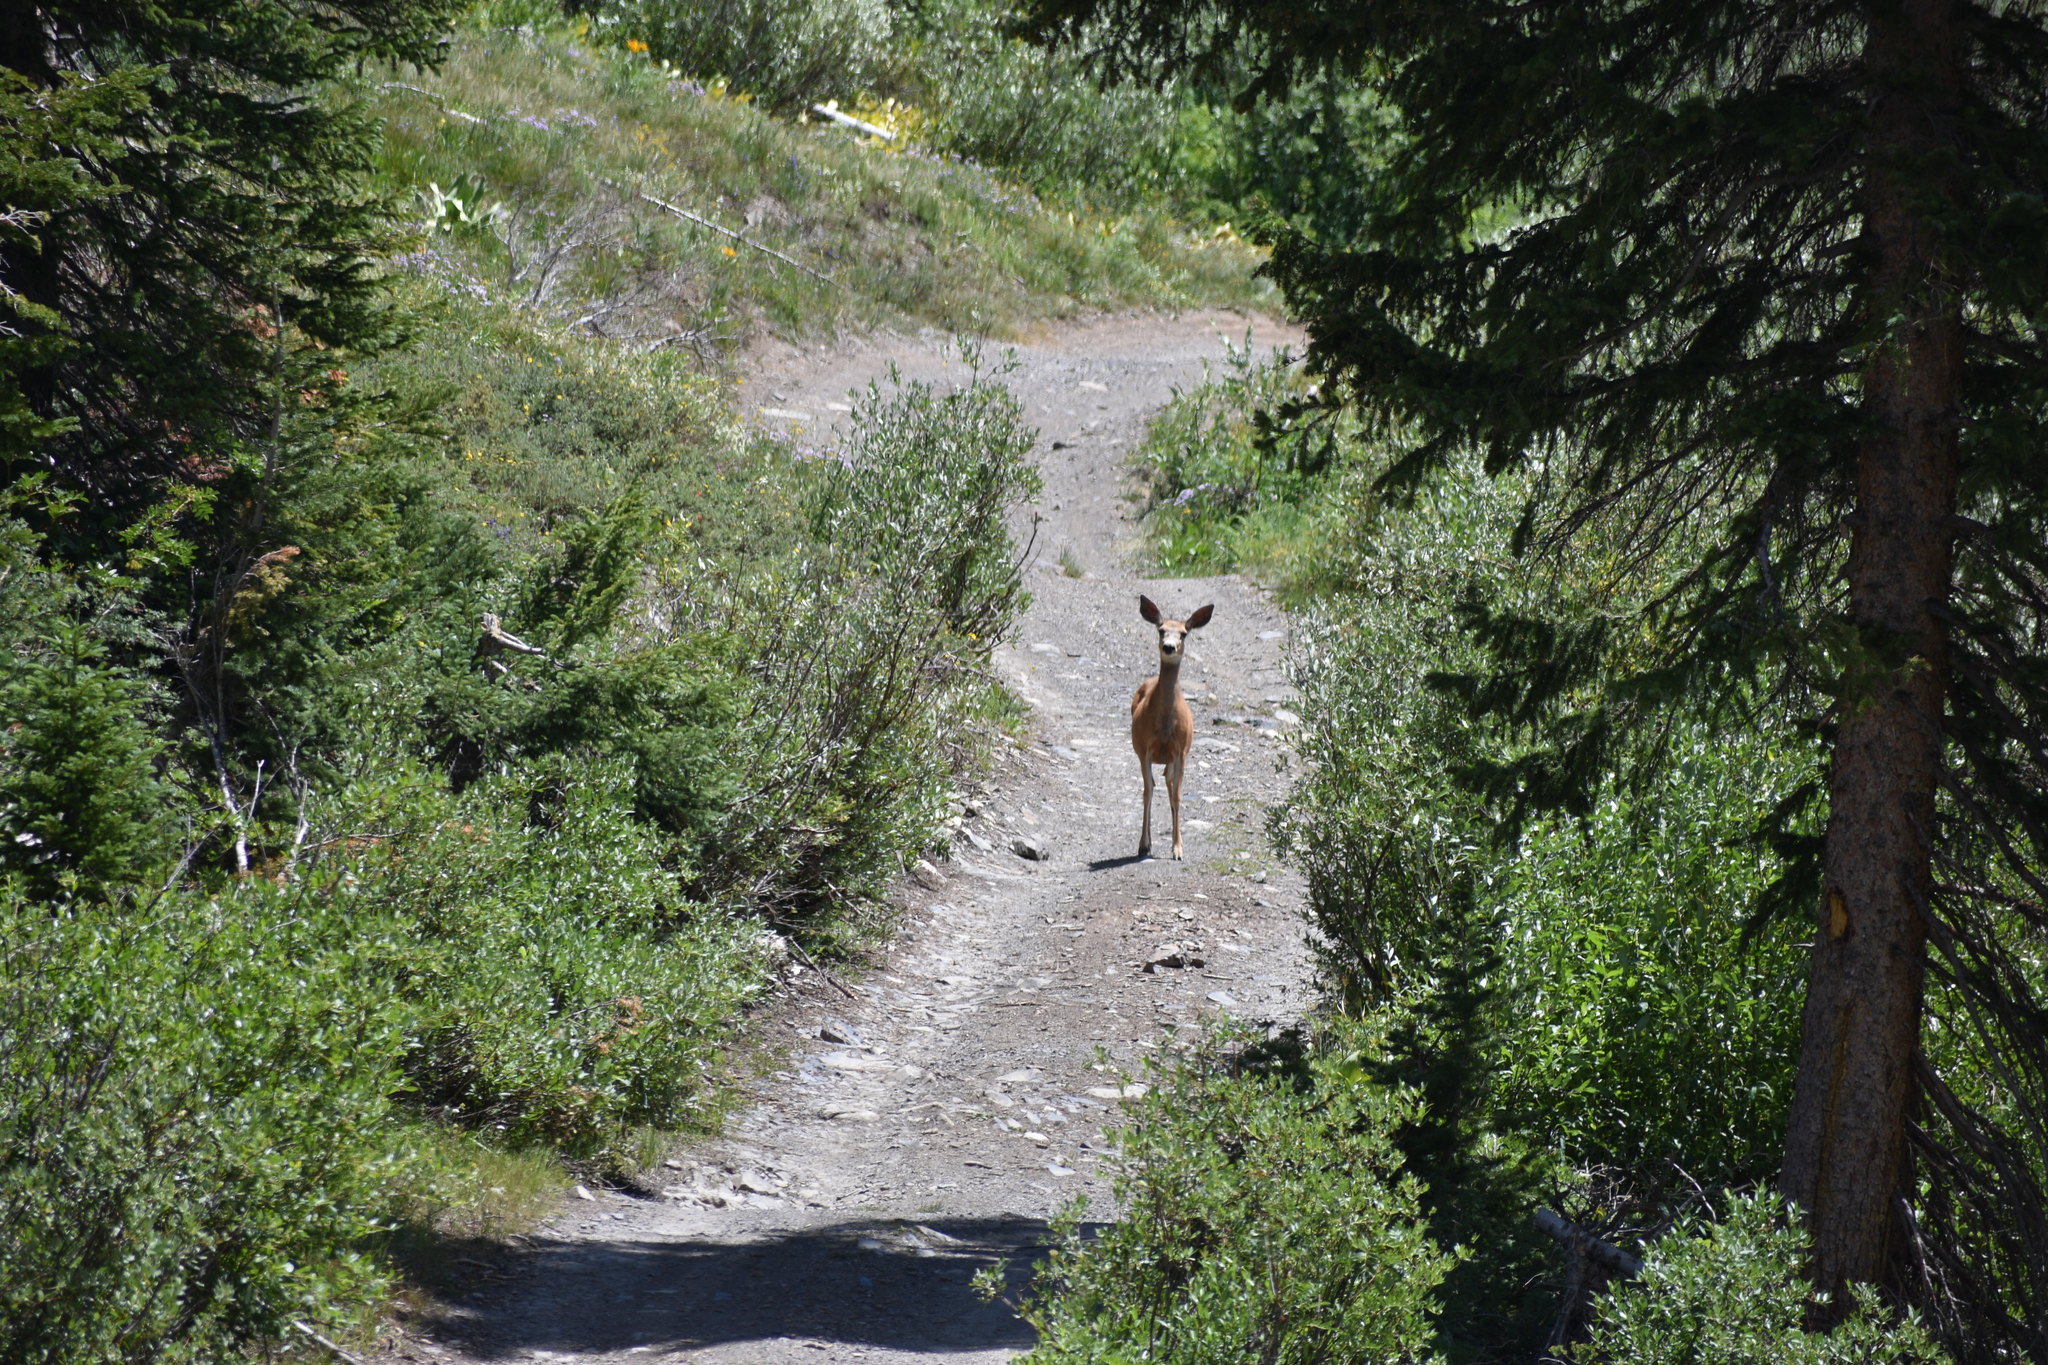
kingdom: Animalia
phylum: Chordata
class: Mammalia
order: Artiodactyla
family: Cervidae
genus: Odocoileus
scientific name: Odocoileus hemionus
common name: Mule deer
